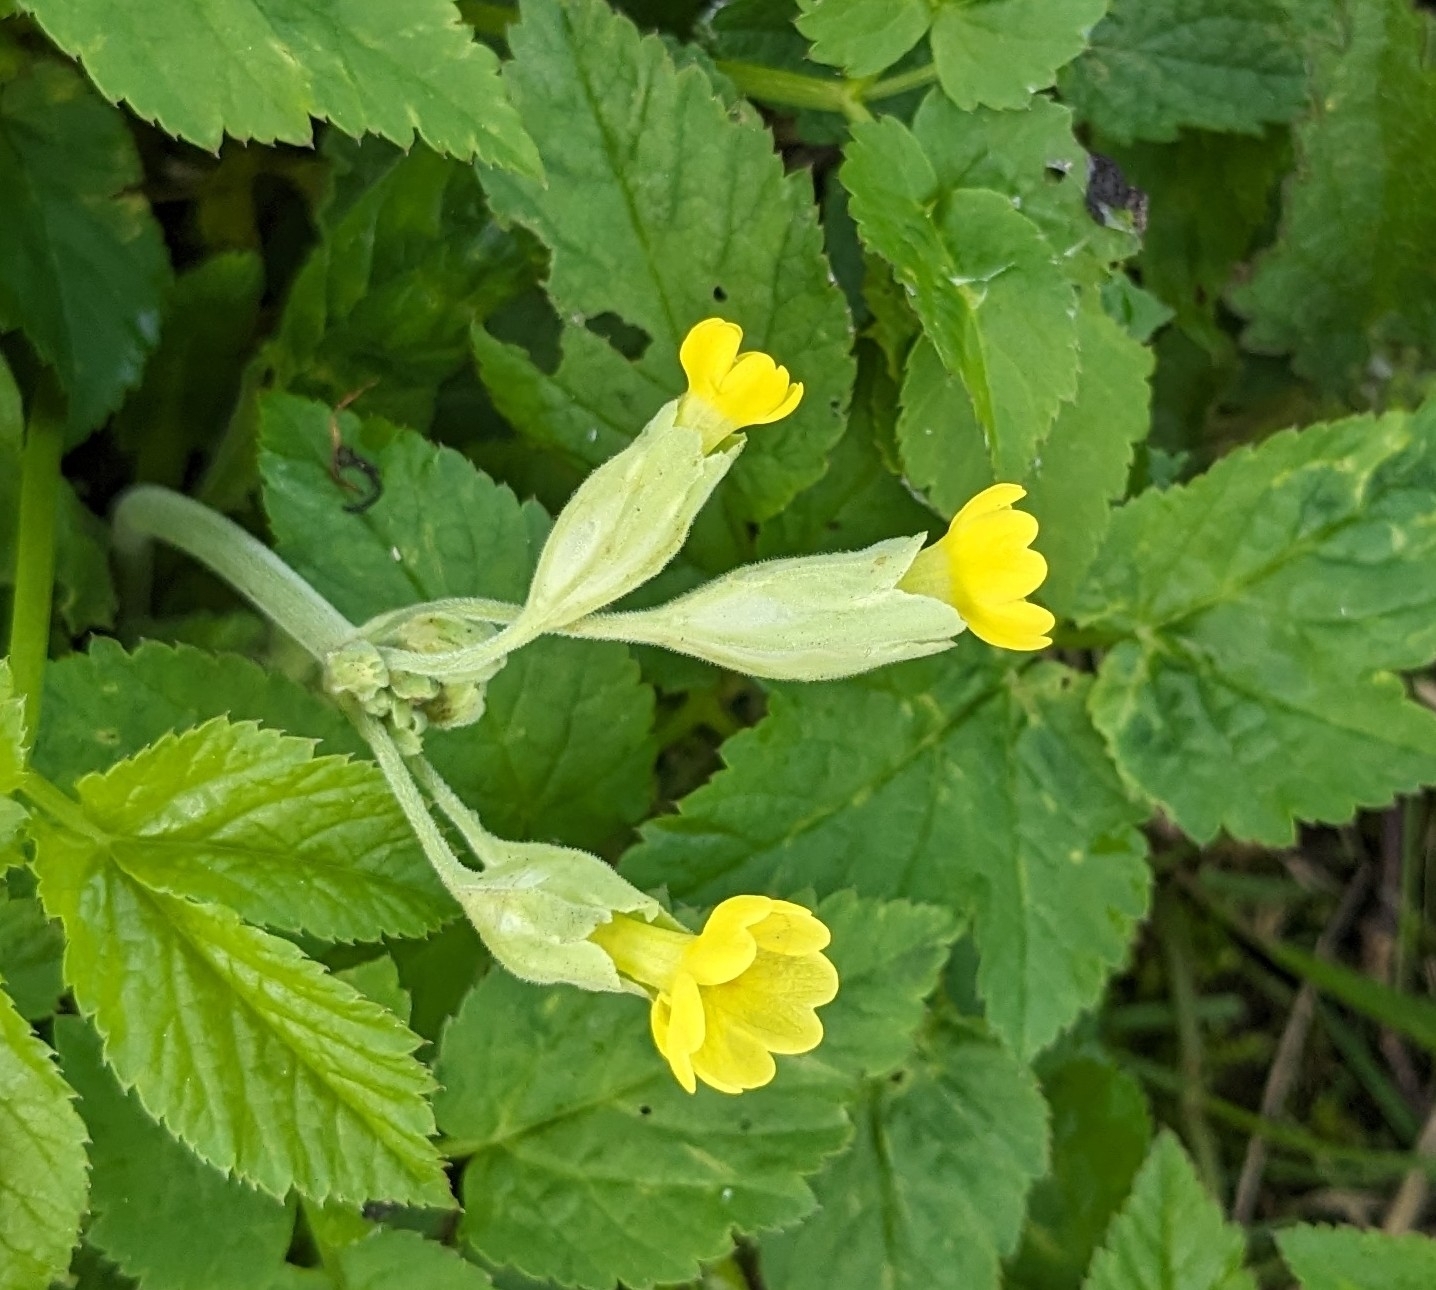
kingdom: Plantae
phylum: Tracheophyta
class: Magnoliopsida
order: Ericales
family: Primulaceae
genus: Primula
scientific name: Primula veris
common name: Cowslip
